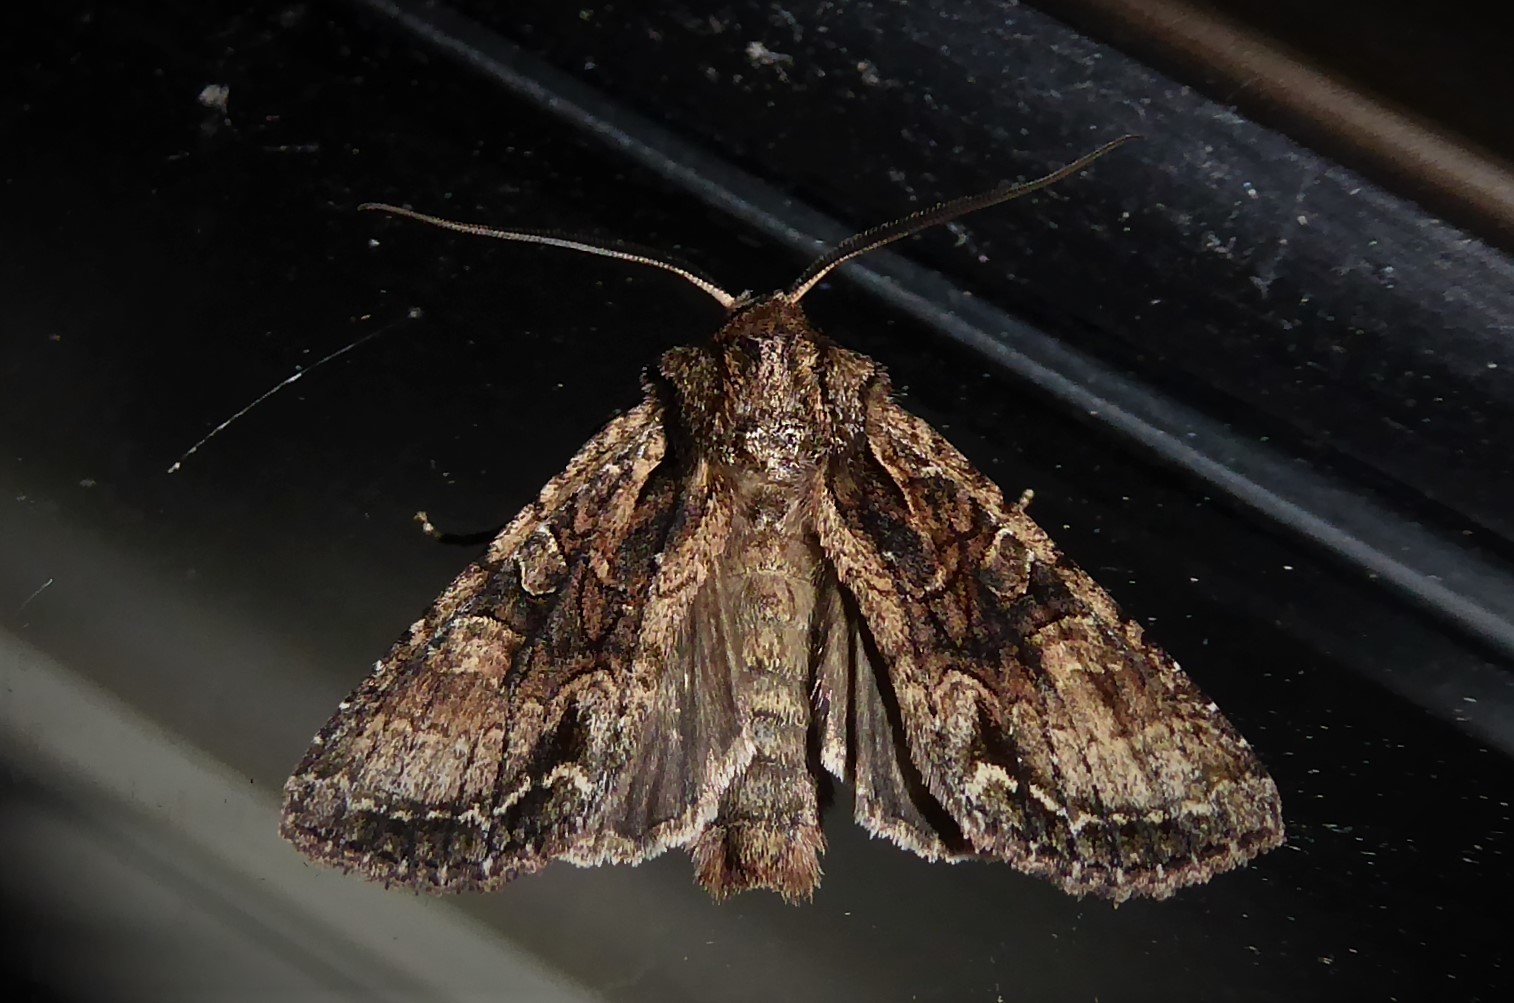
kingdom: Animalia
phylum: Arthropoda
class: Insecta
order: Lepidoptera
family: Noctuidae
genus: Ichneutica
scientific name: Ichneutica mutans
